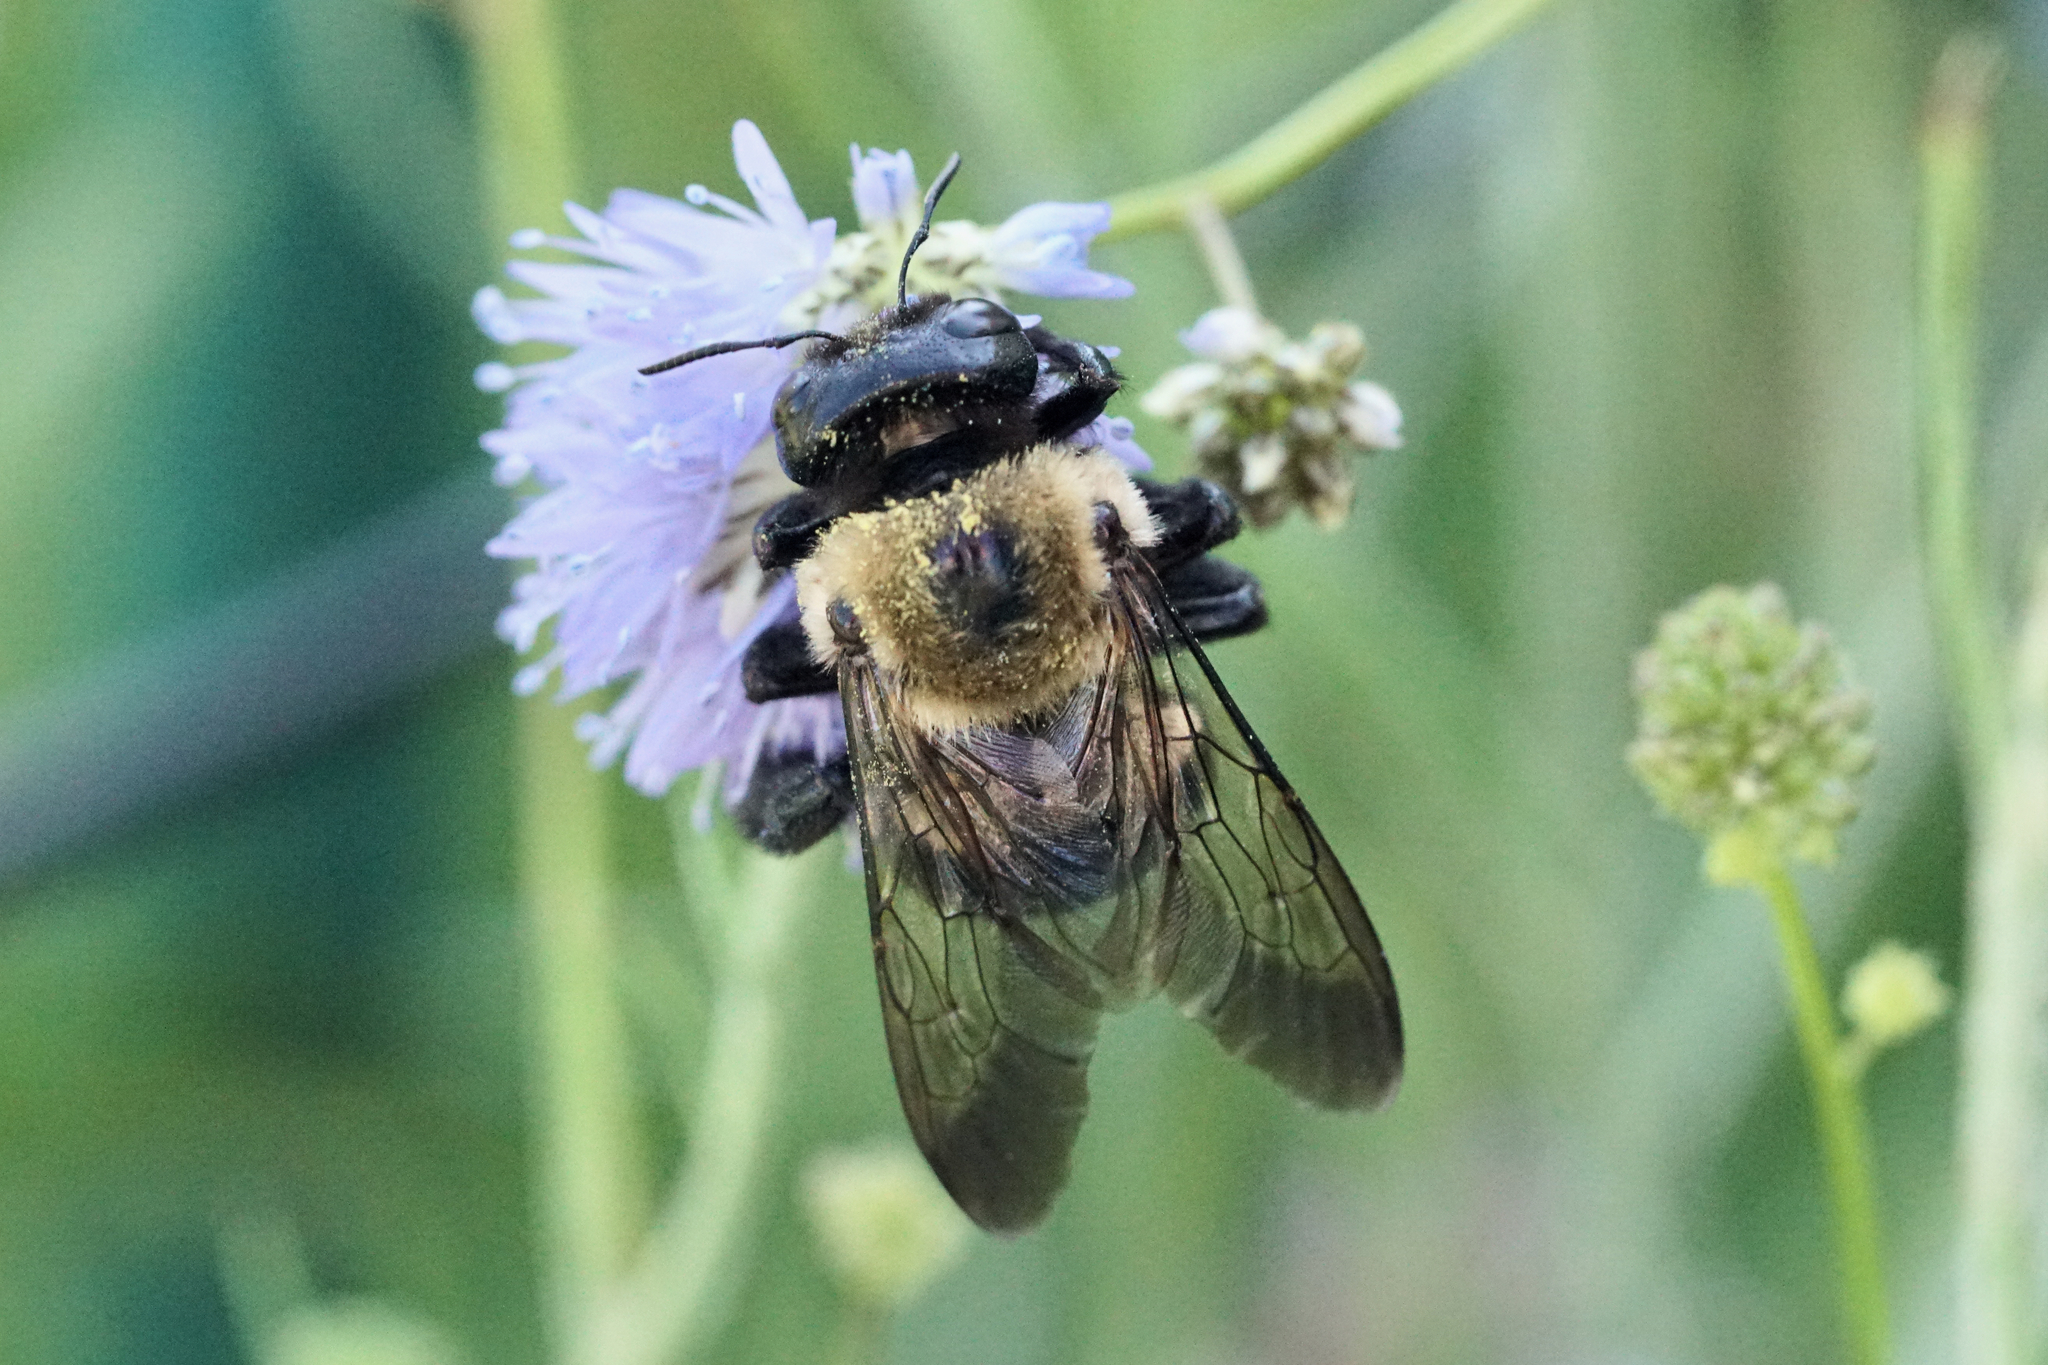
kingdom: Animalia
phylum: Arthropoda
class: Insecta
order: Hymenoptera
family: Apidae
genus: Xylocopa
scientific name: Xylocopa virginica
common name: Carpenter bee
